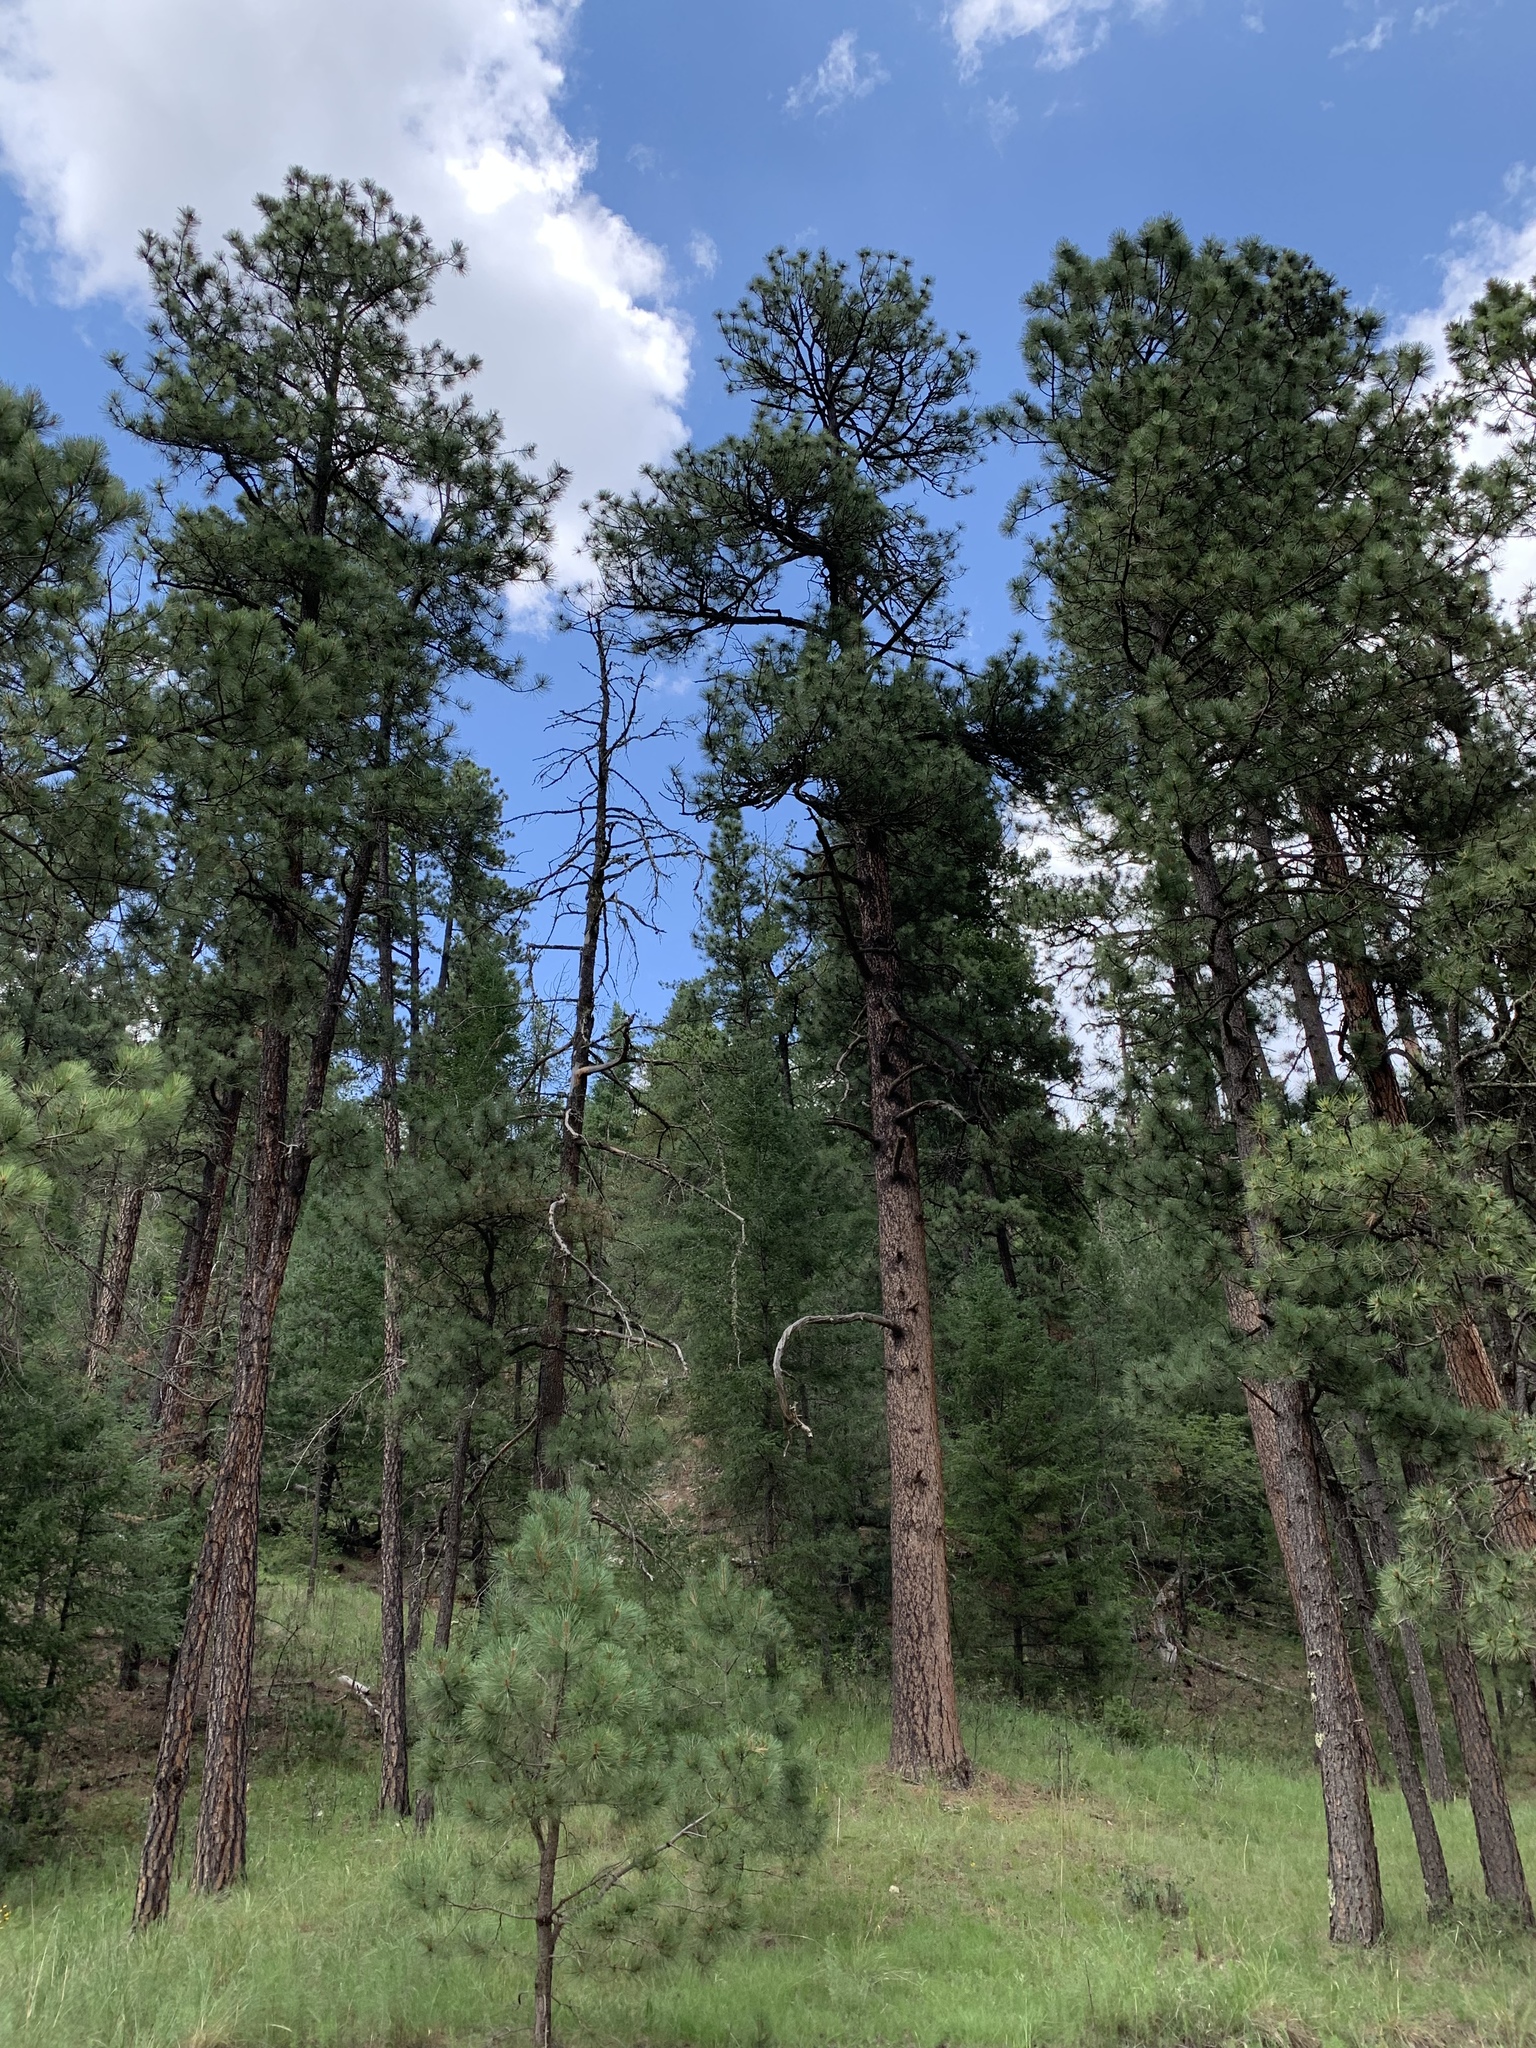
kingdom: Plantae
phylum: Tracheophyta
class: Pinopsida
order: Pinales
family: Pinaceae
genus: Pinus
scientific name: Pinus ponderosa
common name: Western yellow-pine
